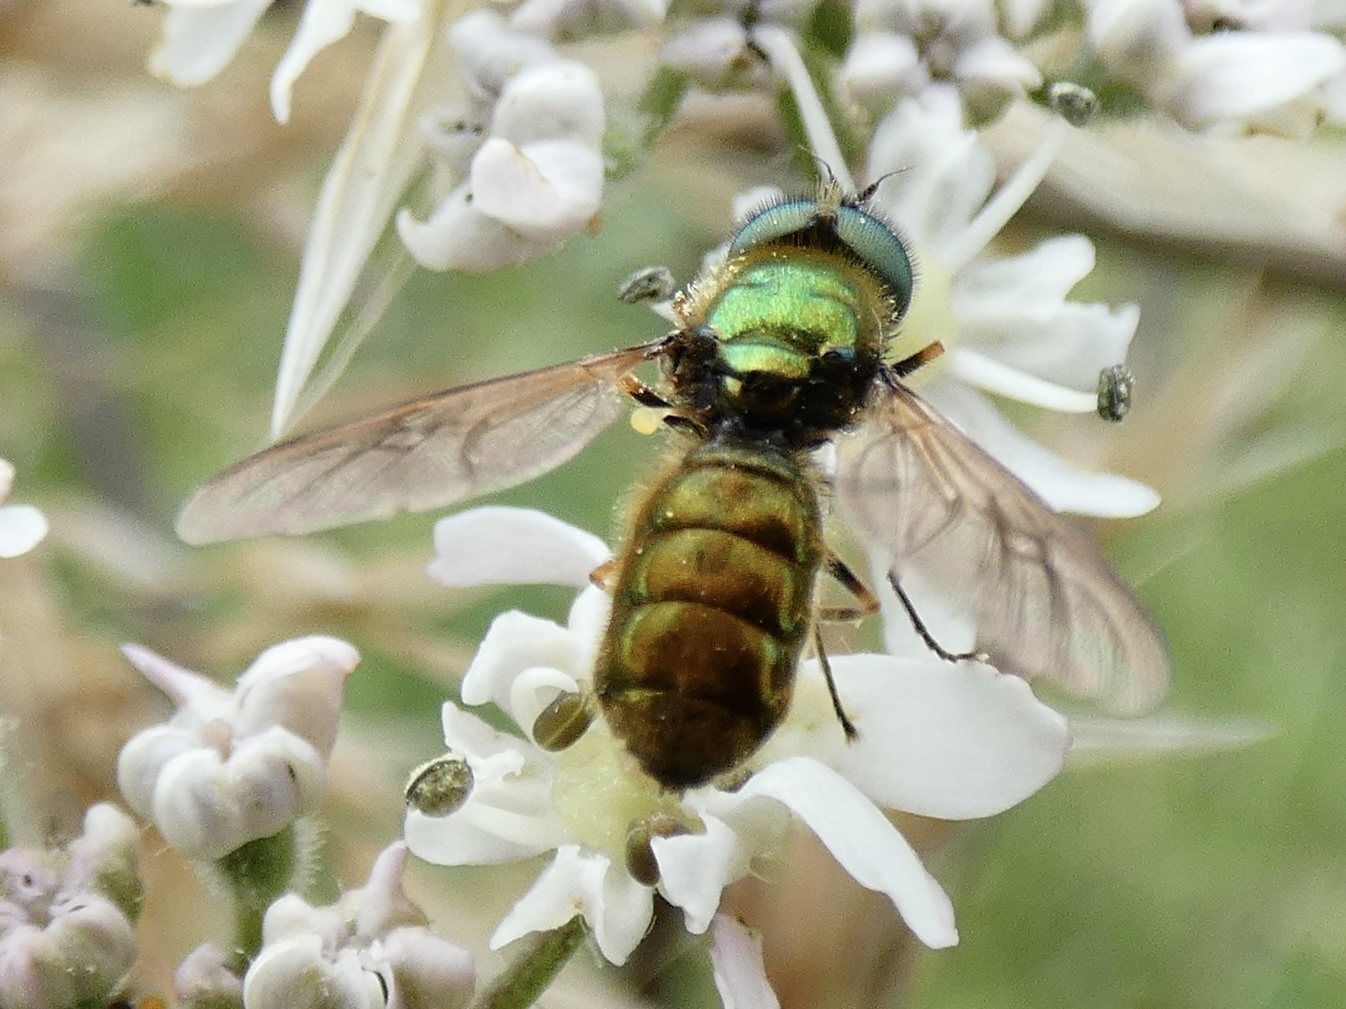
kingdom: Animalia
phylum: Arthropoda
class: Insecta
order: Diptera
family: Stratiomyidae
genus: Chloromyia
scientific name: Chloromyia formosa
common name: Soldier fly
